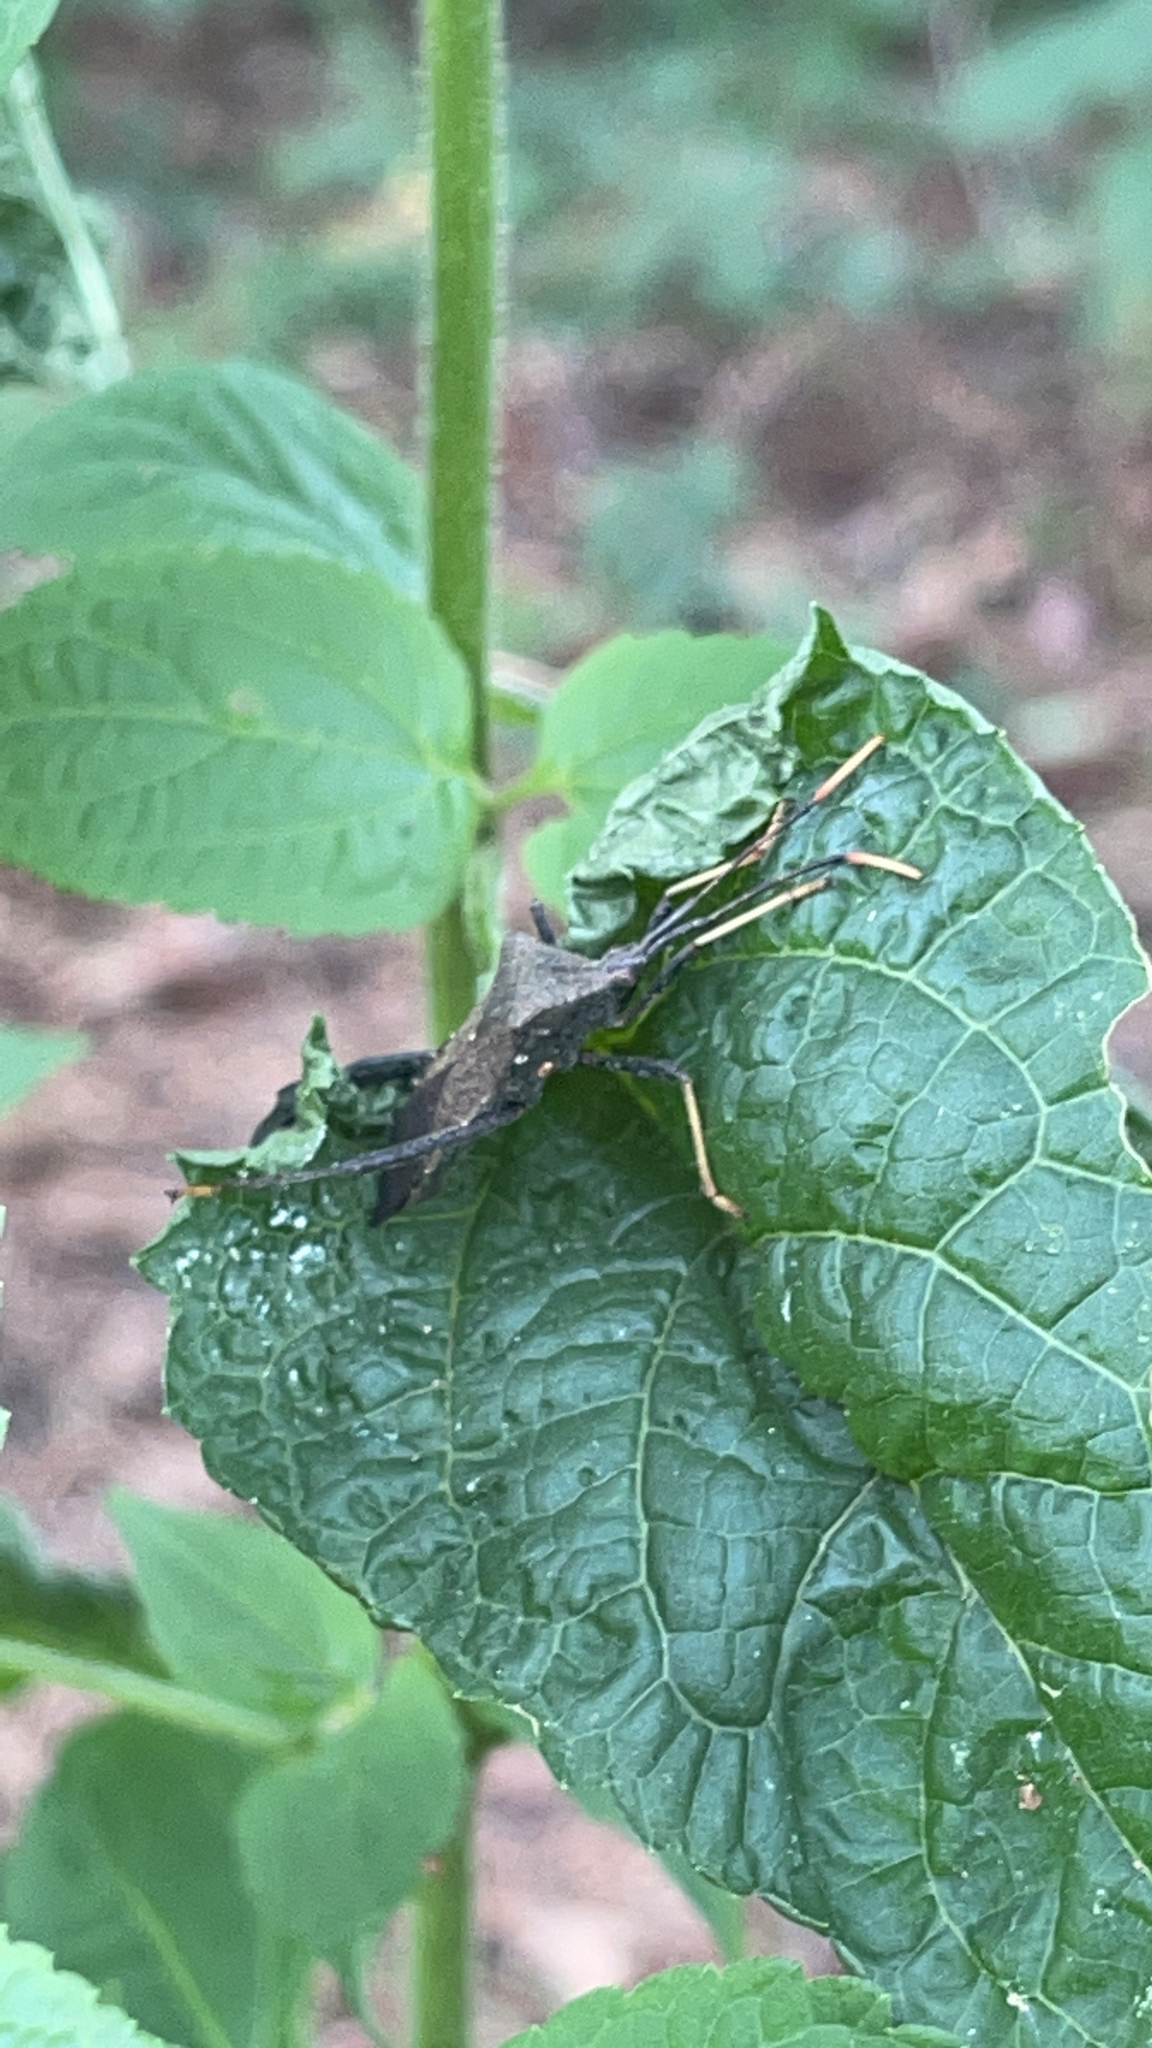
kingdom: Animalia
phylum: Arthropoda
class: Insecta
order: Hemiptera
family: Coreidae
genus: Acanthocephala
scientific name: Acanthocephala terminalis
